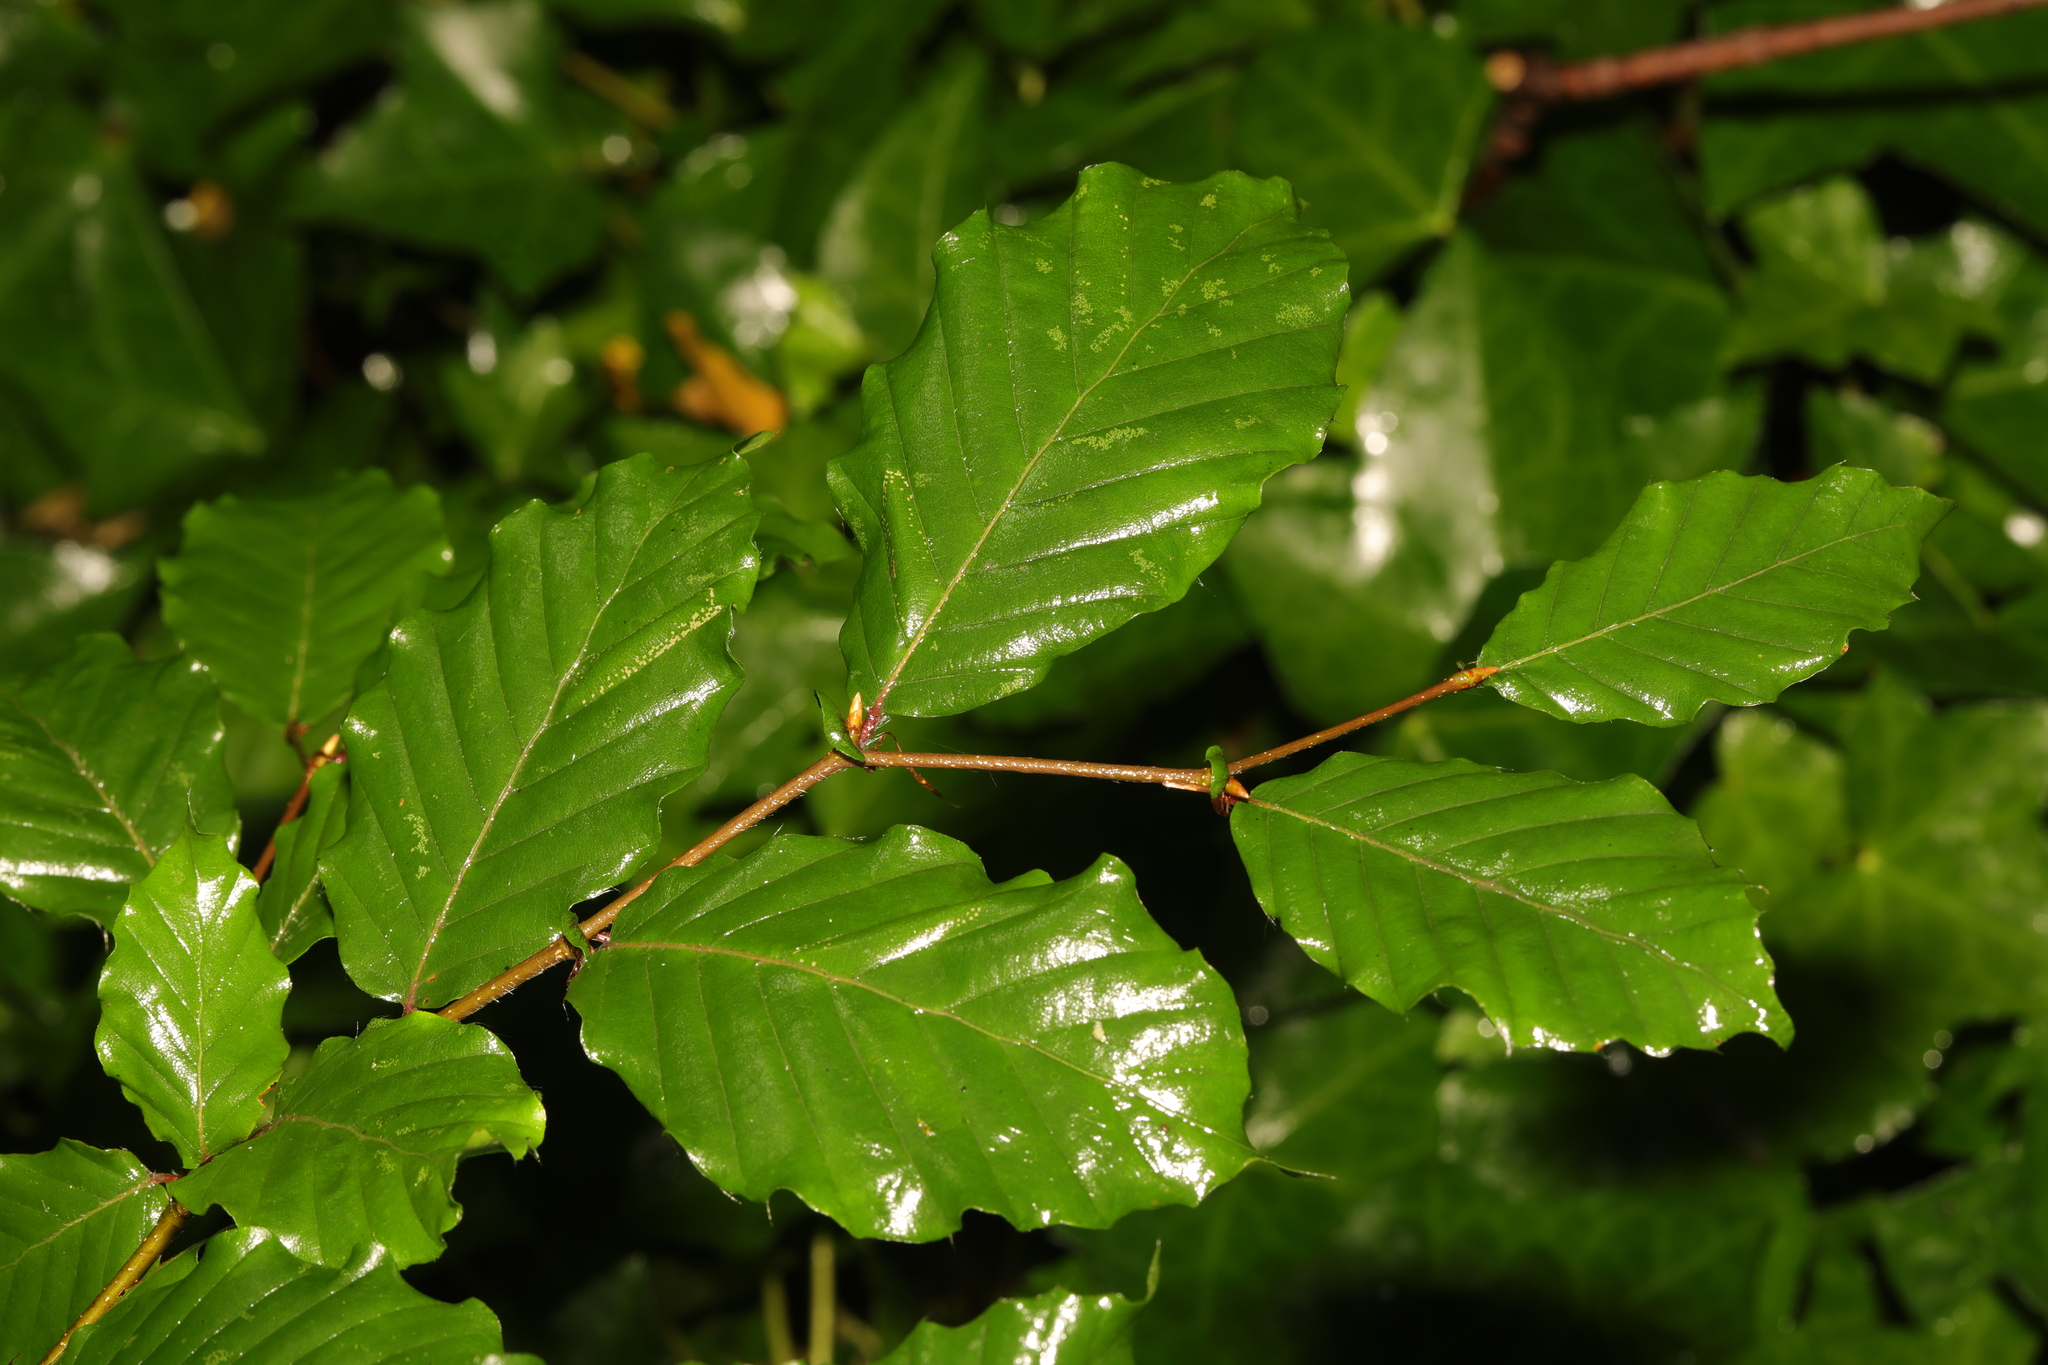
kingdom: Plantae
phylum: Tracheophyta
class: Magnoliopsida
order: Fagales
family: Fagaceae
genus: Fagus
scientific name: Fagus sylvatica
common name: Beech
